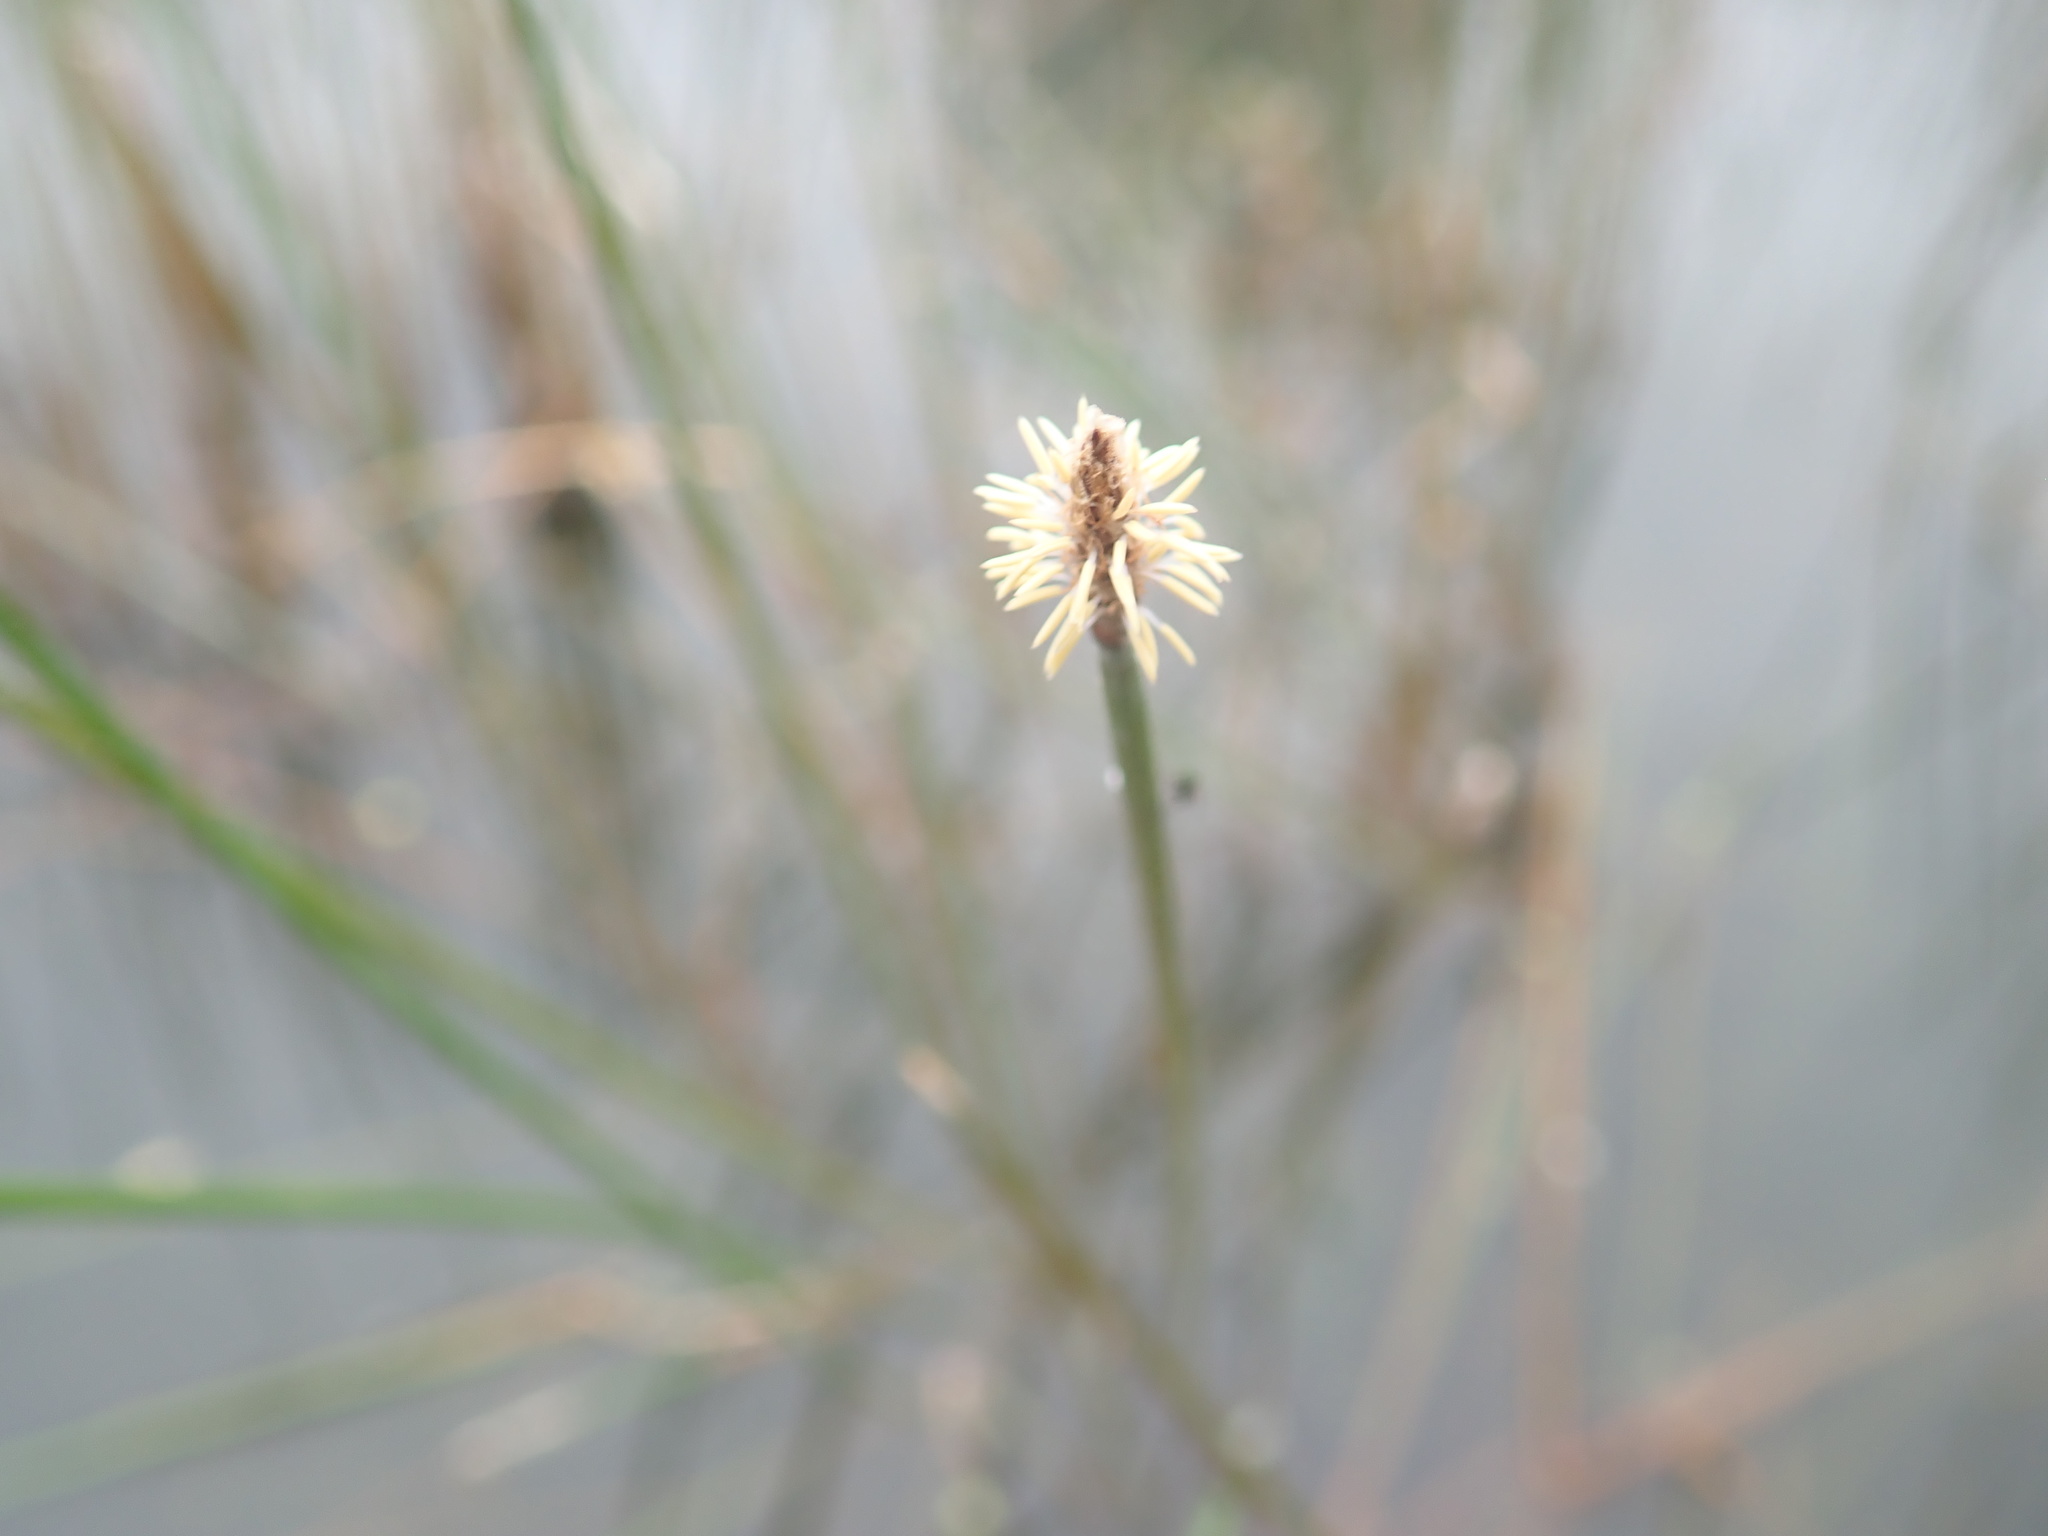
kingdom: Plantae
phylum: Tracheophyta
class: Liliopsida
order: Poales
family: Cyperaceae
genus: Eleocharis
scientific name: Eleocharis acuta
